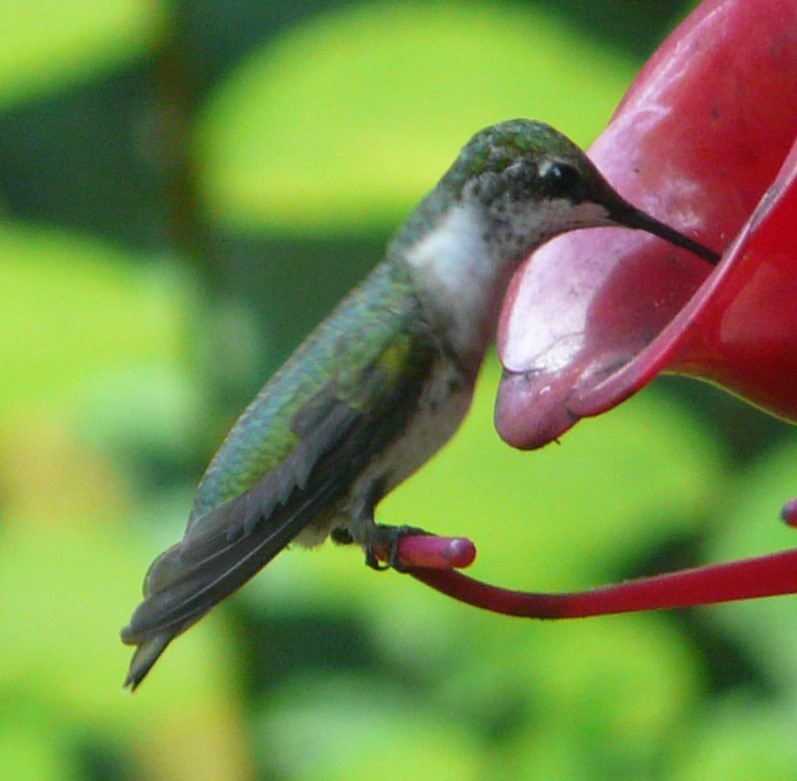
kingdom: Animalia
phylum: Chordata
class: Aves
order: Apodiformes
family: Trochilidae
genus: Archilochus
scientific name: Archilochus colubris
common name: Ruby-throated hummingbird
